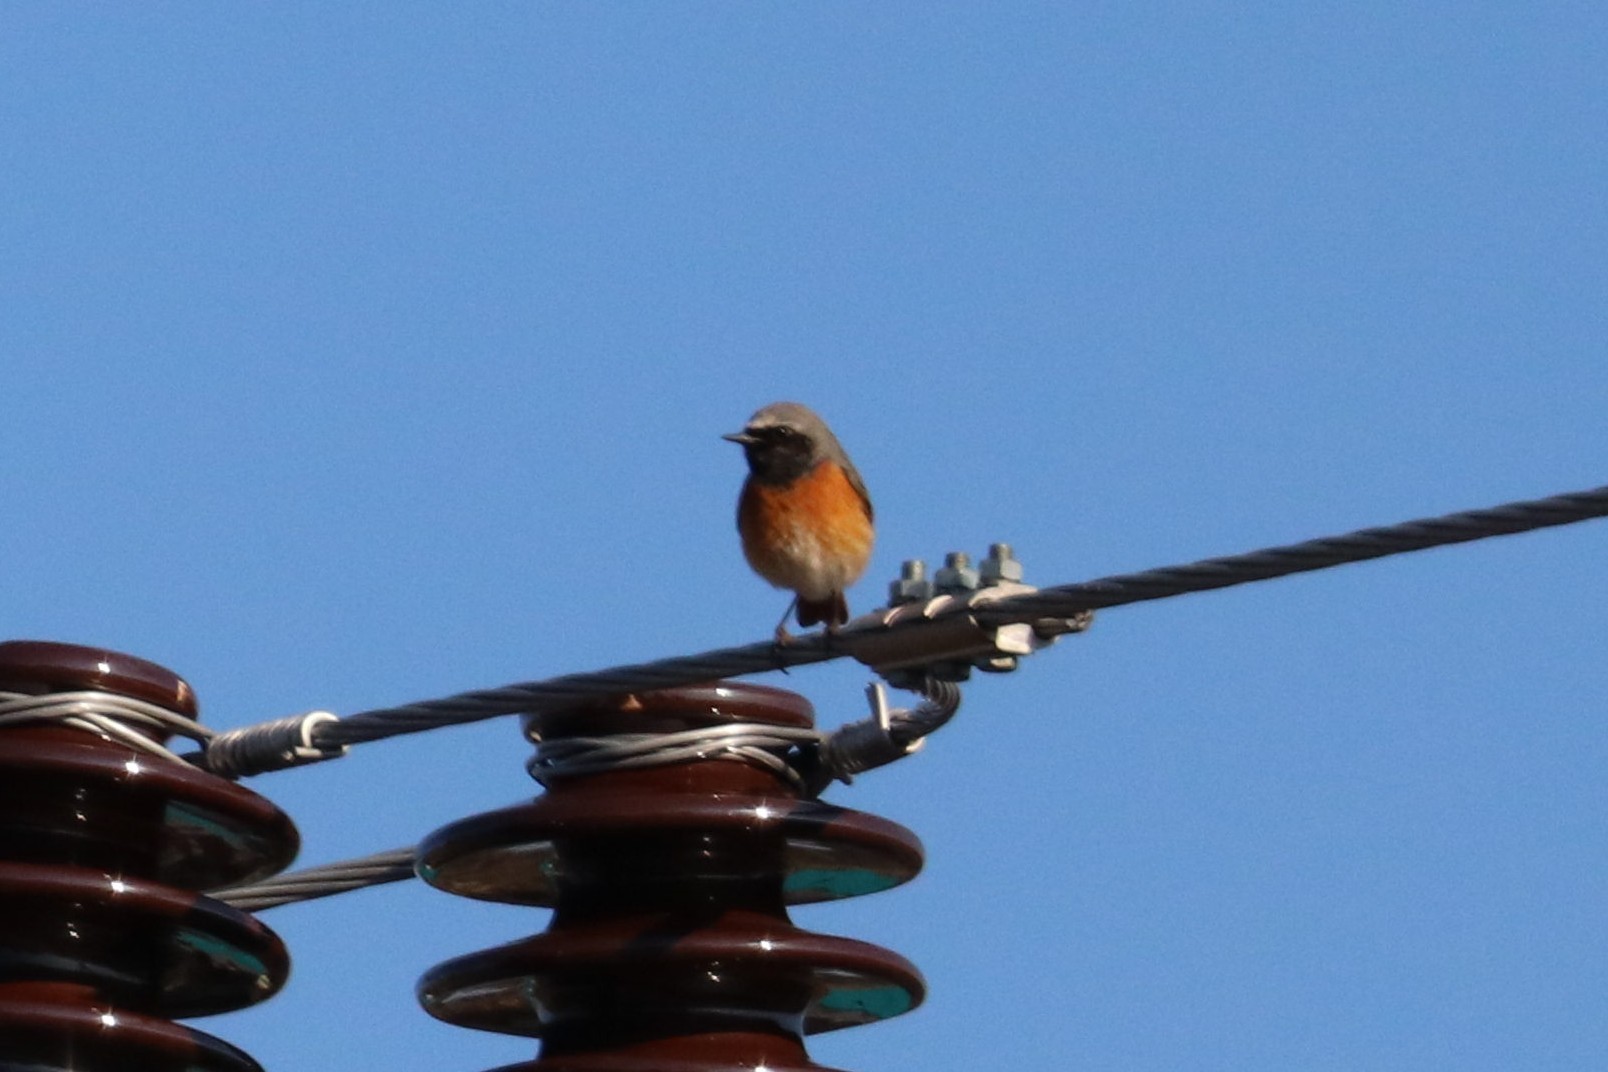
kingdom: Animalia
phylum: Chordata
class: Aves
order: Passeriformes
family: Muscicapidae
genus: Phoenicurus
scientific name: Phoenicurus phoenicurus
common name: Common redstart
